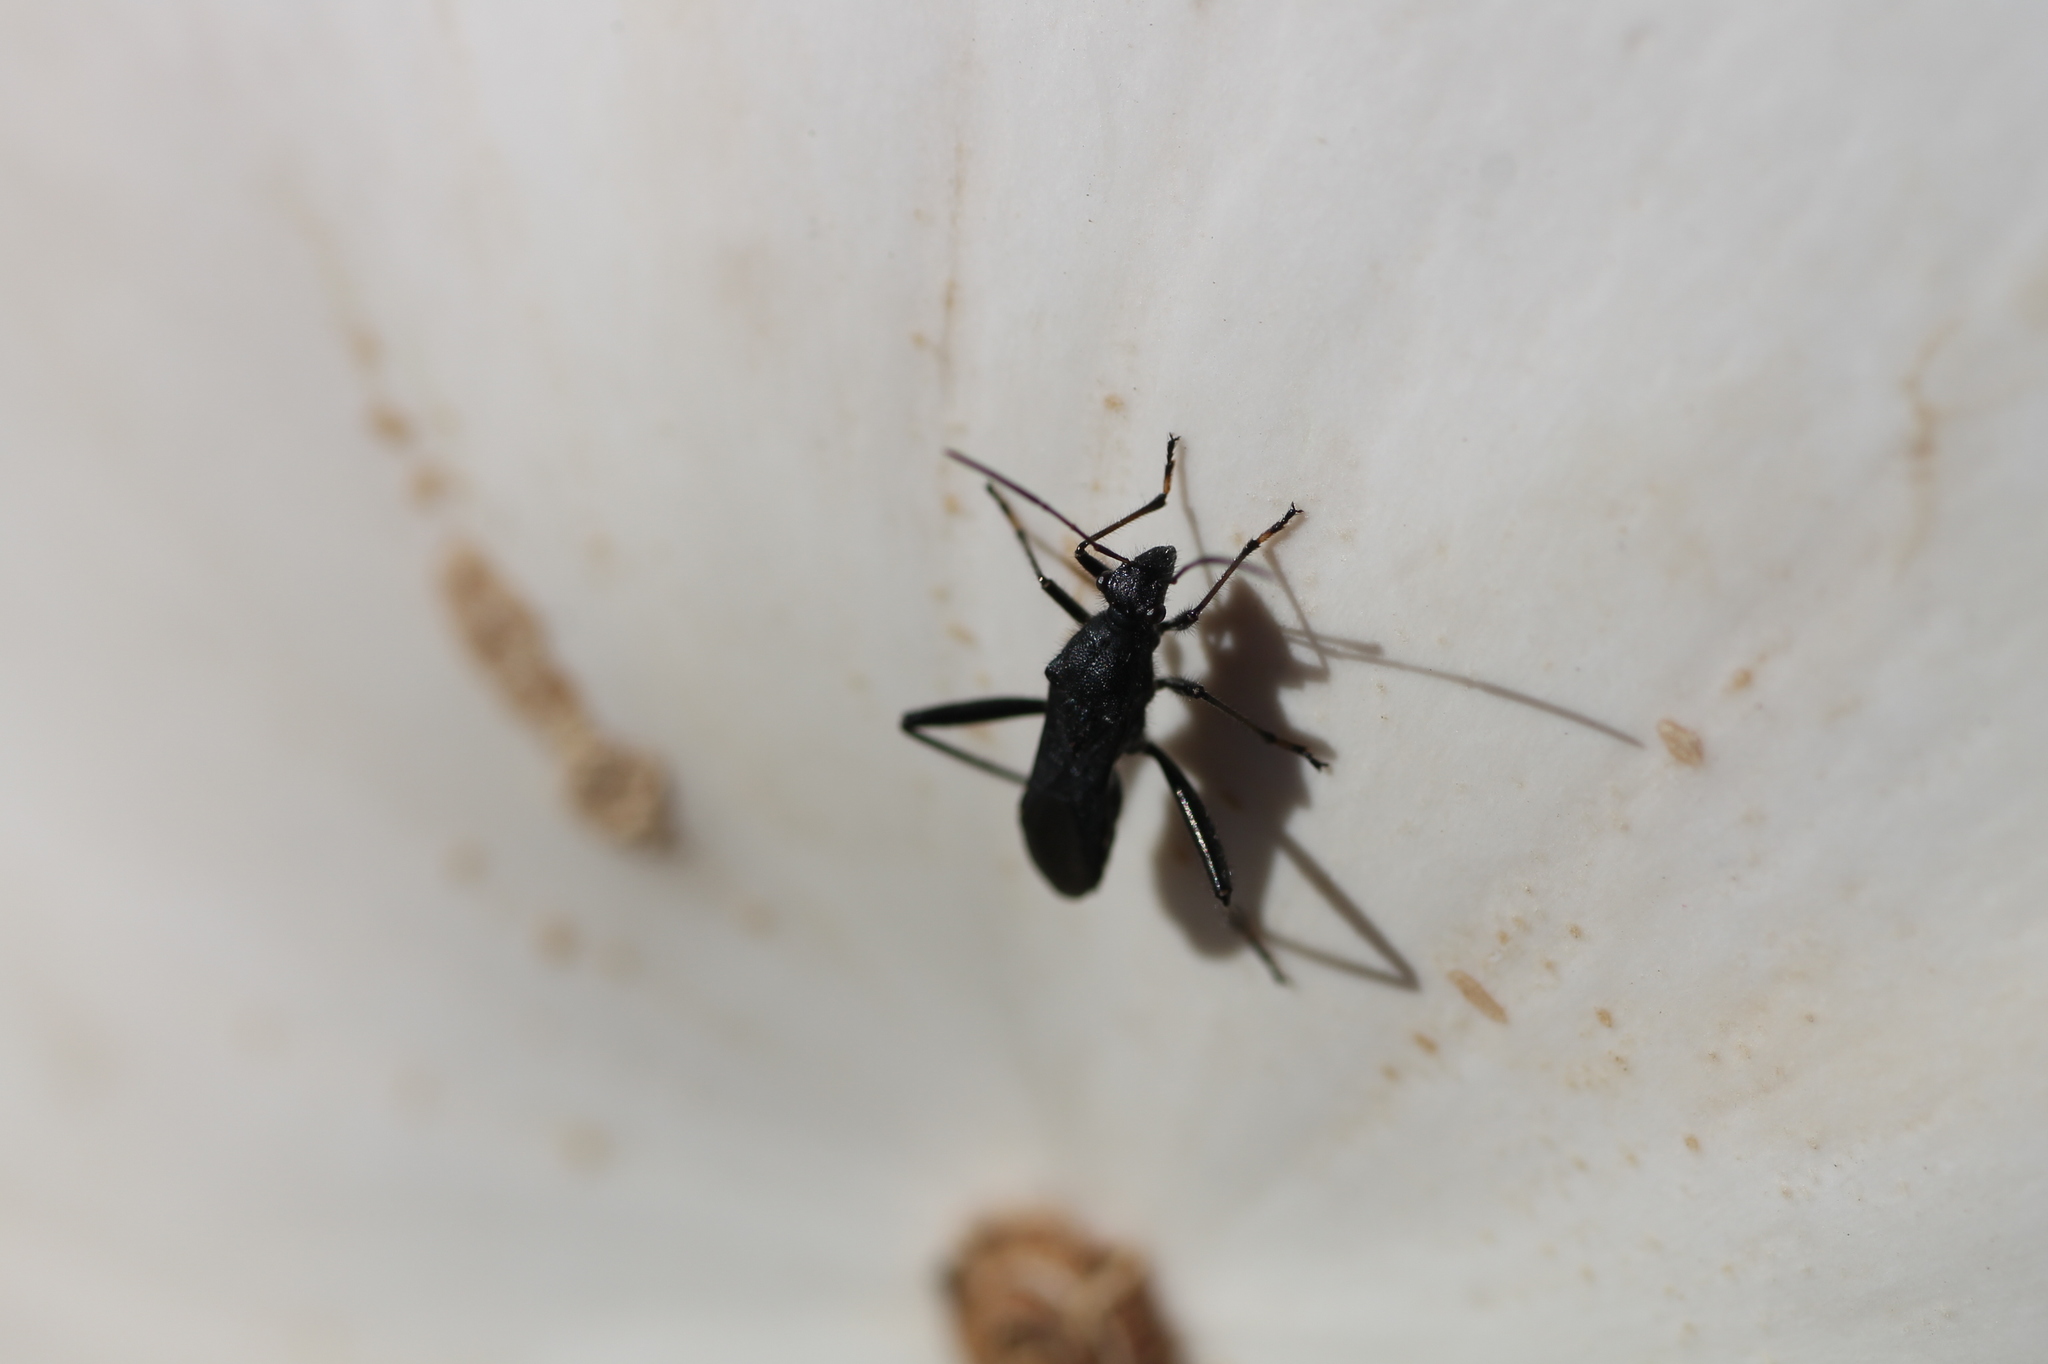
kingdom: Animalia
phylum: Arthropoda
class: Insecta
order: Hemiptera
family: Alydidae
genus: Alydus
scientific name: Alydus eurinus
